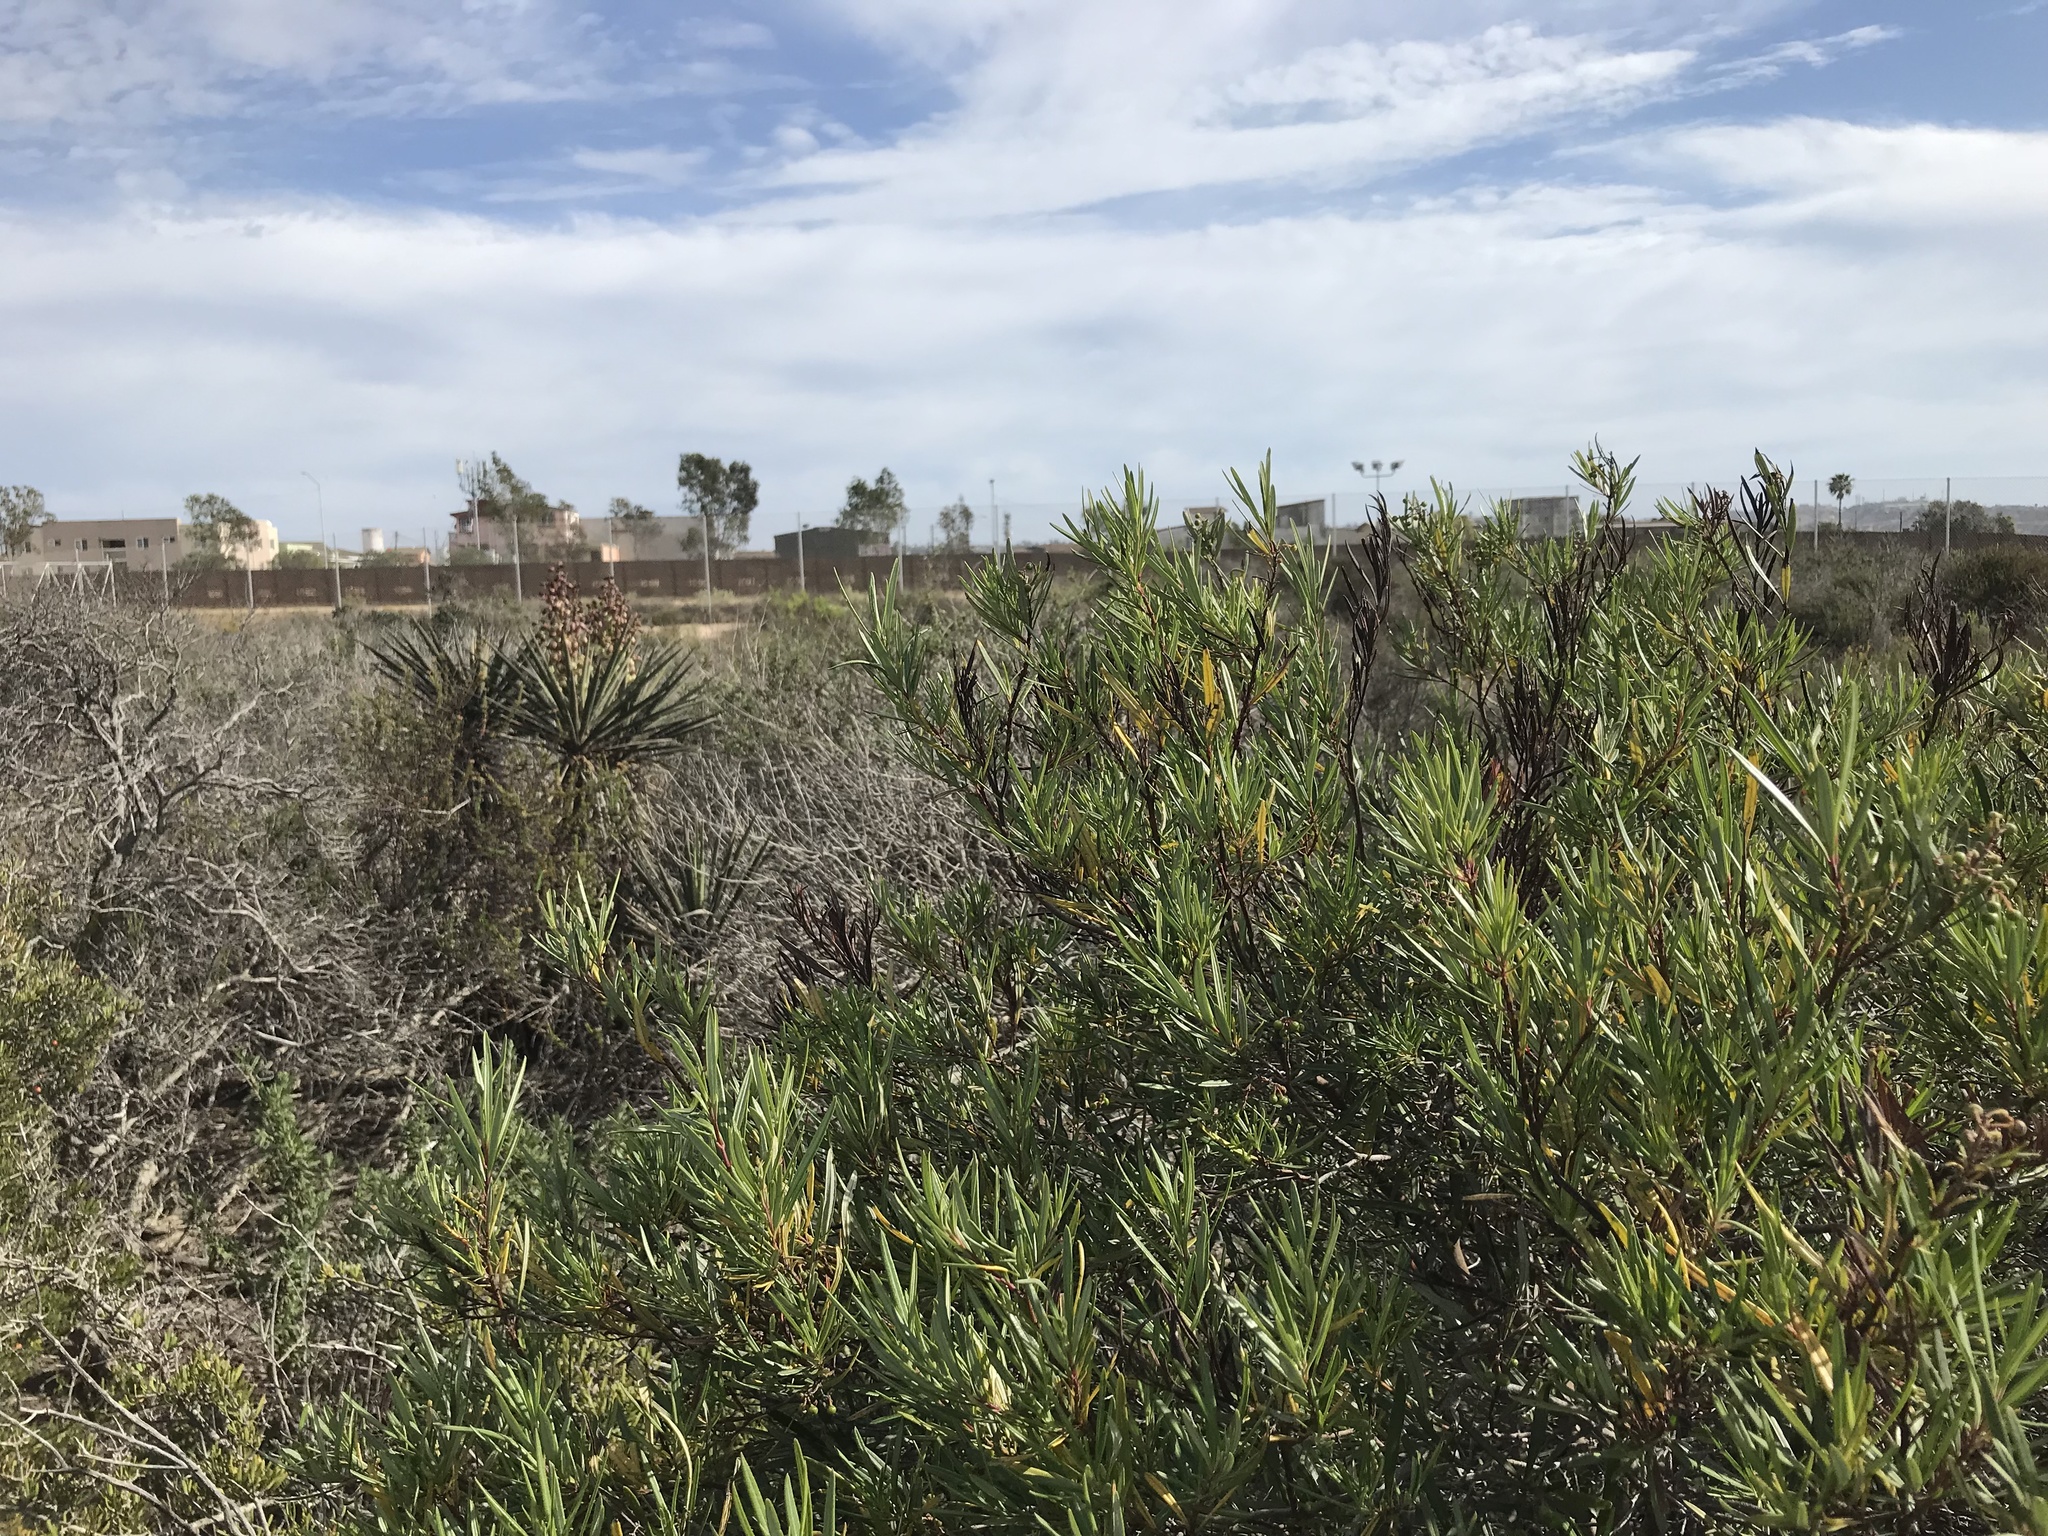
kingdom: Plantae
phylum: Tracheophyta
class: Magnoliopsida
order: Ericales
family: Ericaceae
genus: Ornithostaphylos
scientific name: Ornithostaphylos oppositifolia
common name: Baja california birdbush
